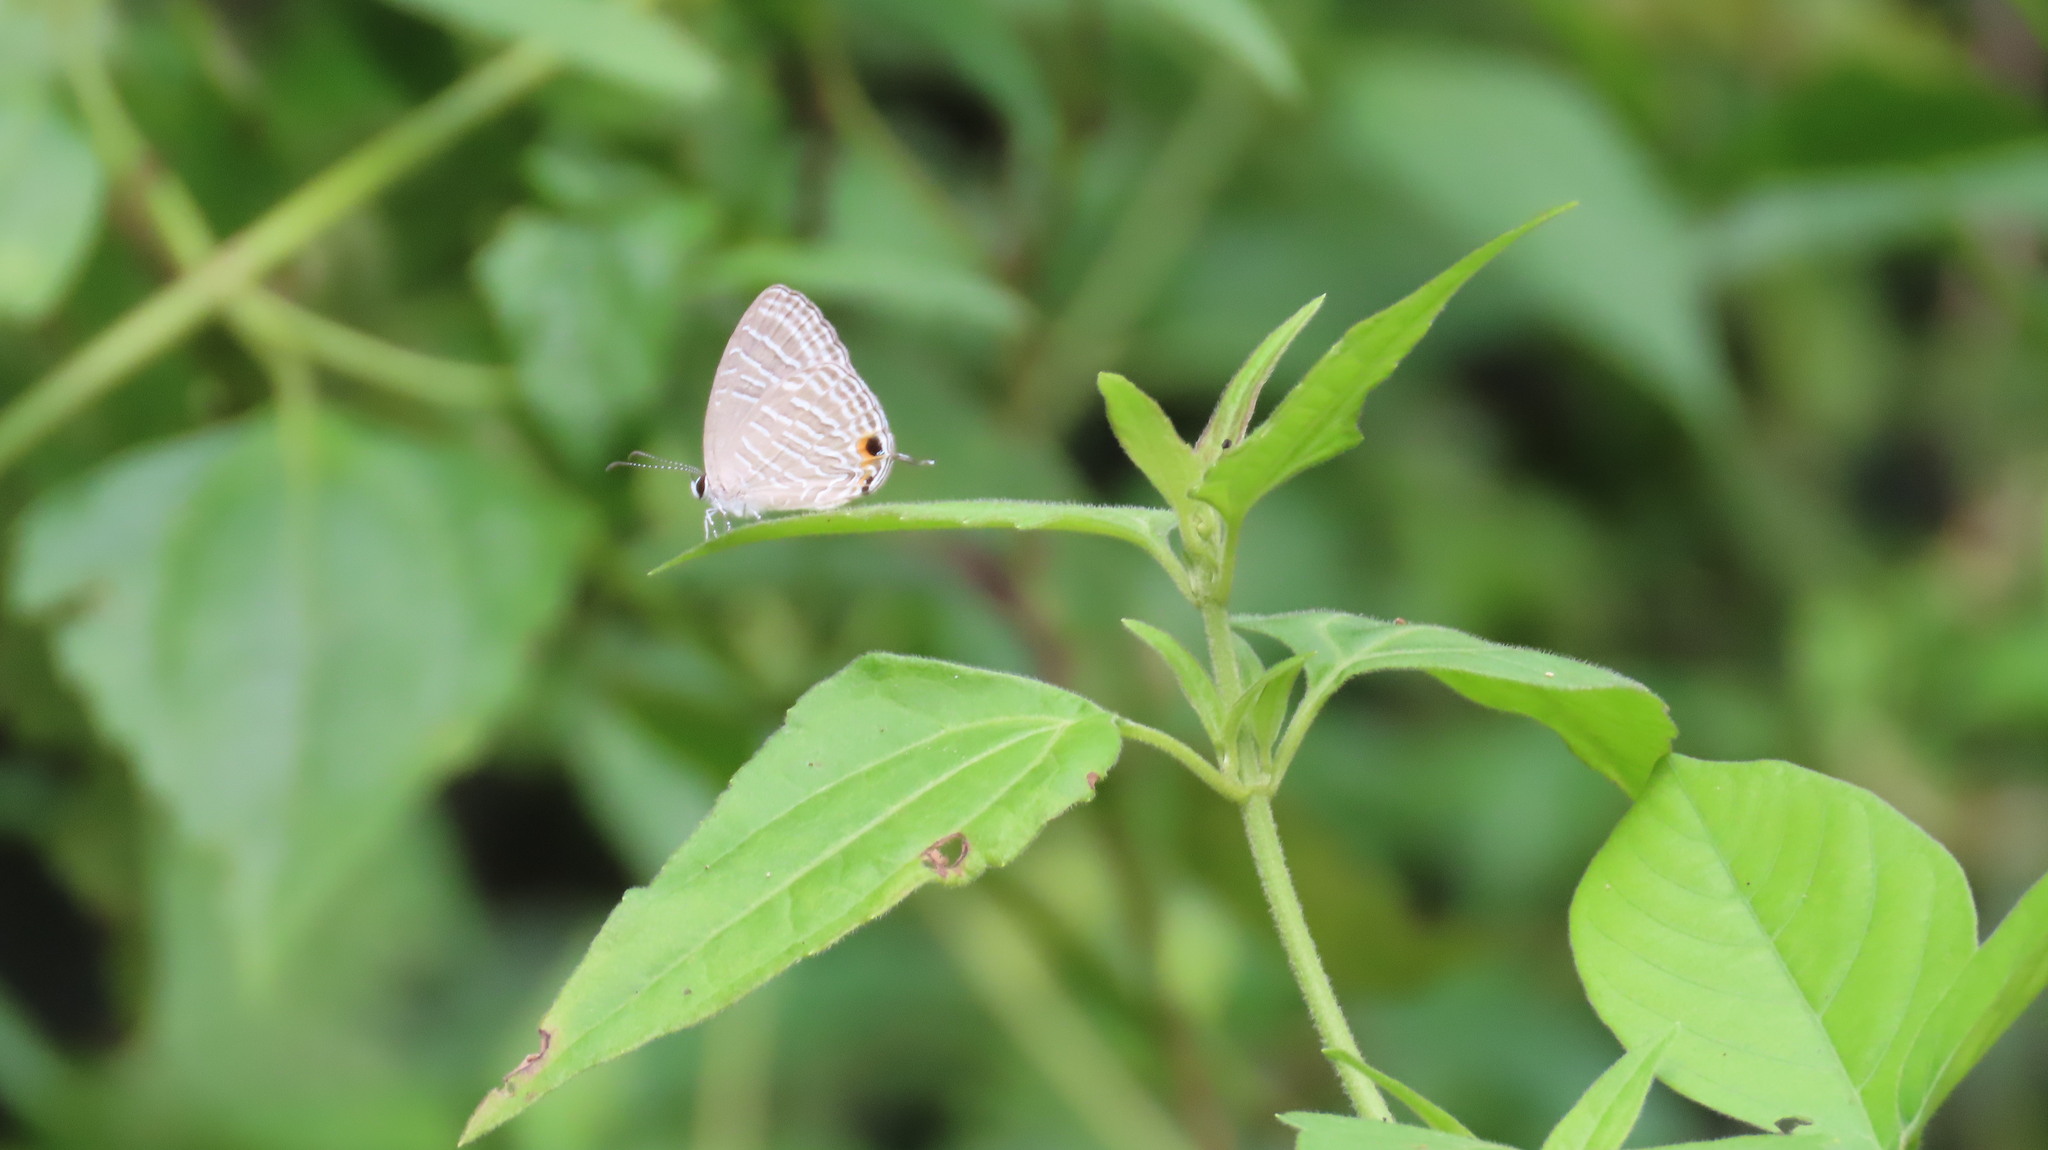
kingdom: Animalia
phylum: Arthropoda
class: Insecta
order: Lepidoptera
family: Lycaenidae
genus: Jamides
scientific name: Jamides celeno
